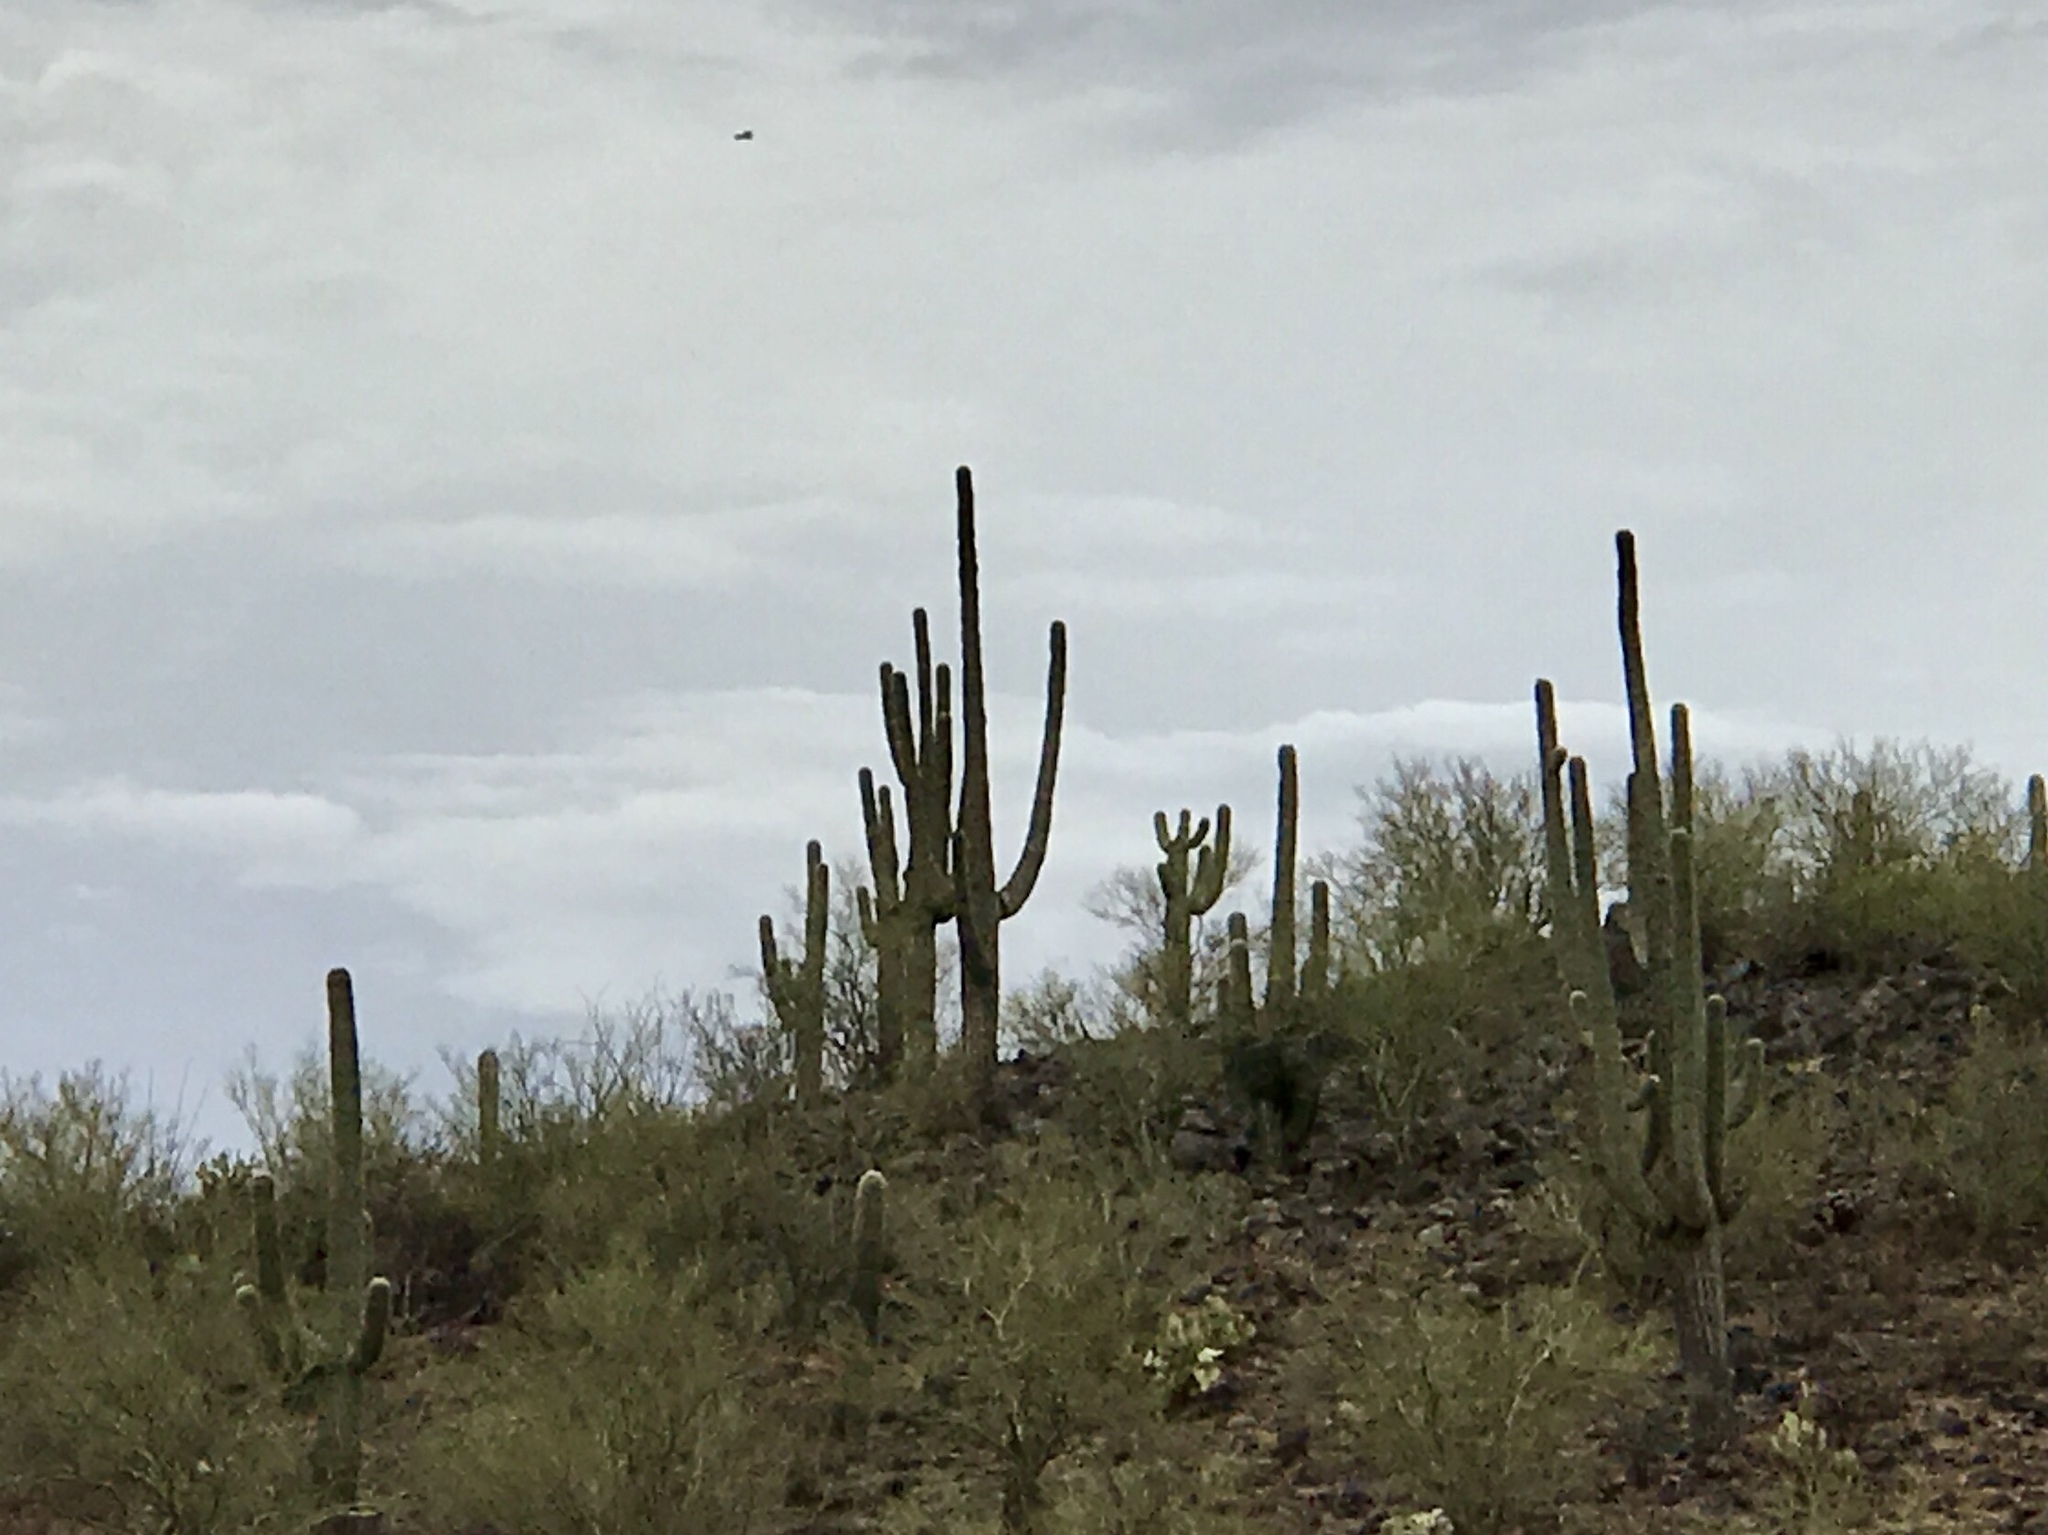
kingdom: Plantae
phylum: Tracheophyta
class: Magnoliopsida
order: Caryophyllales
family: Cactaceae
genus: Carnegiea
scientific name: Carnegiea gigantea
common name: Saguaro
